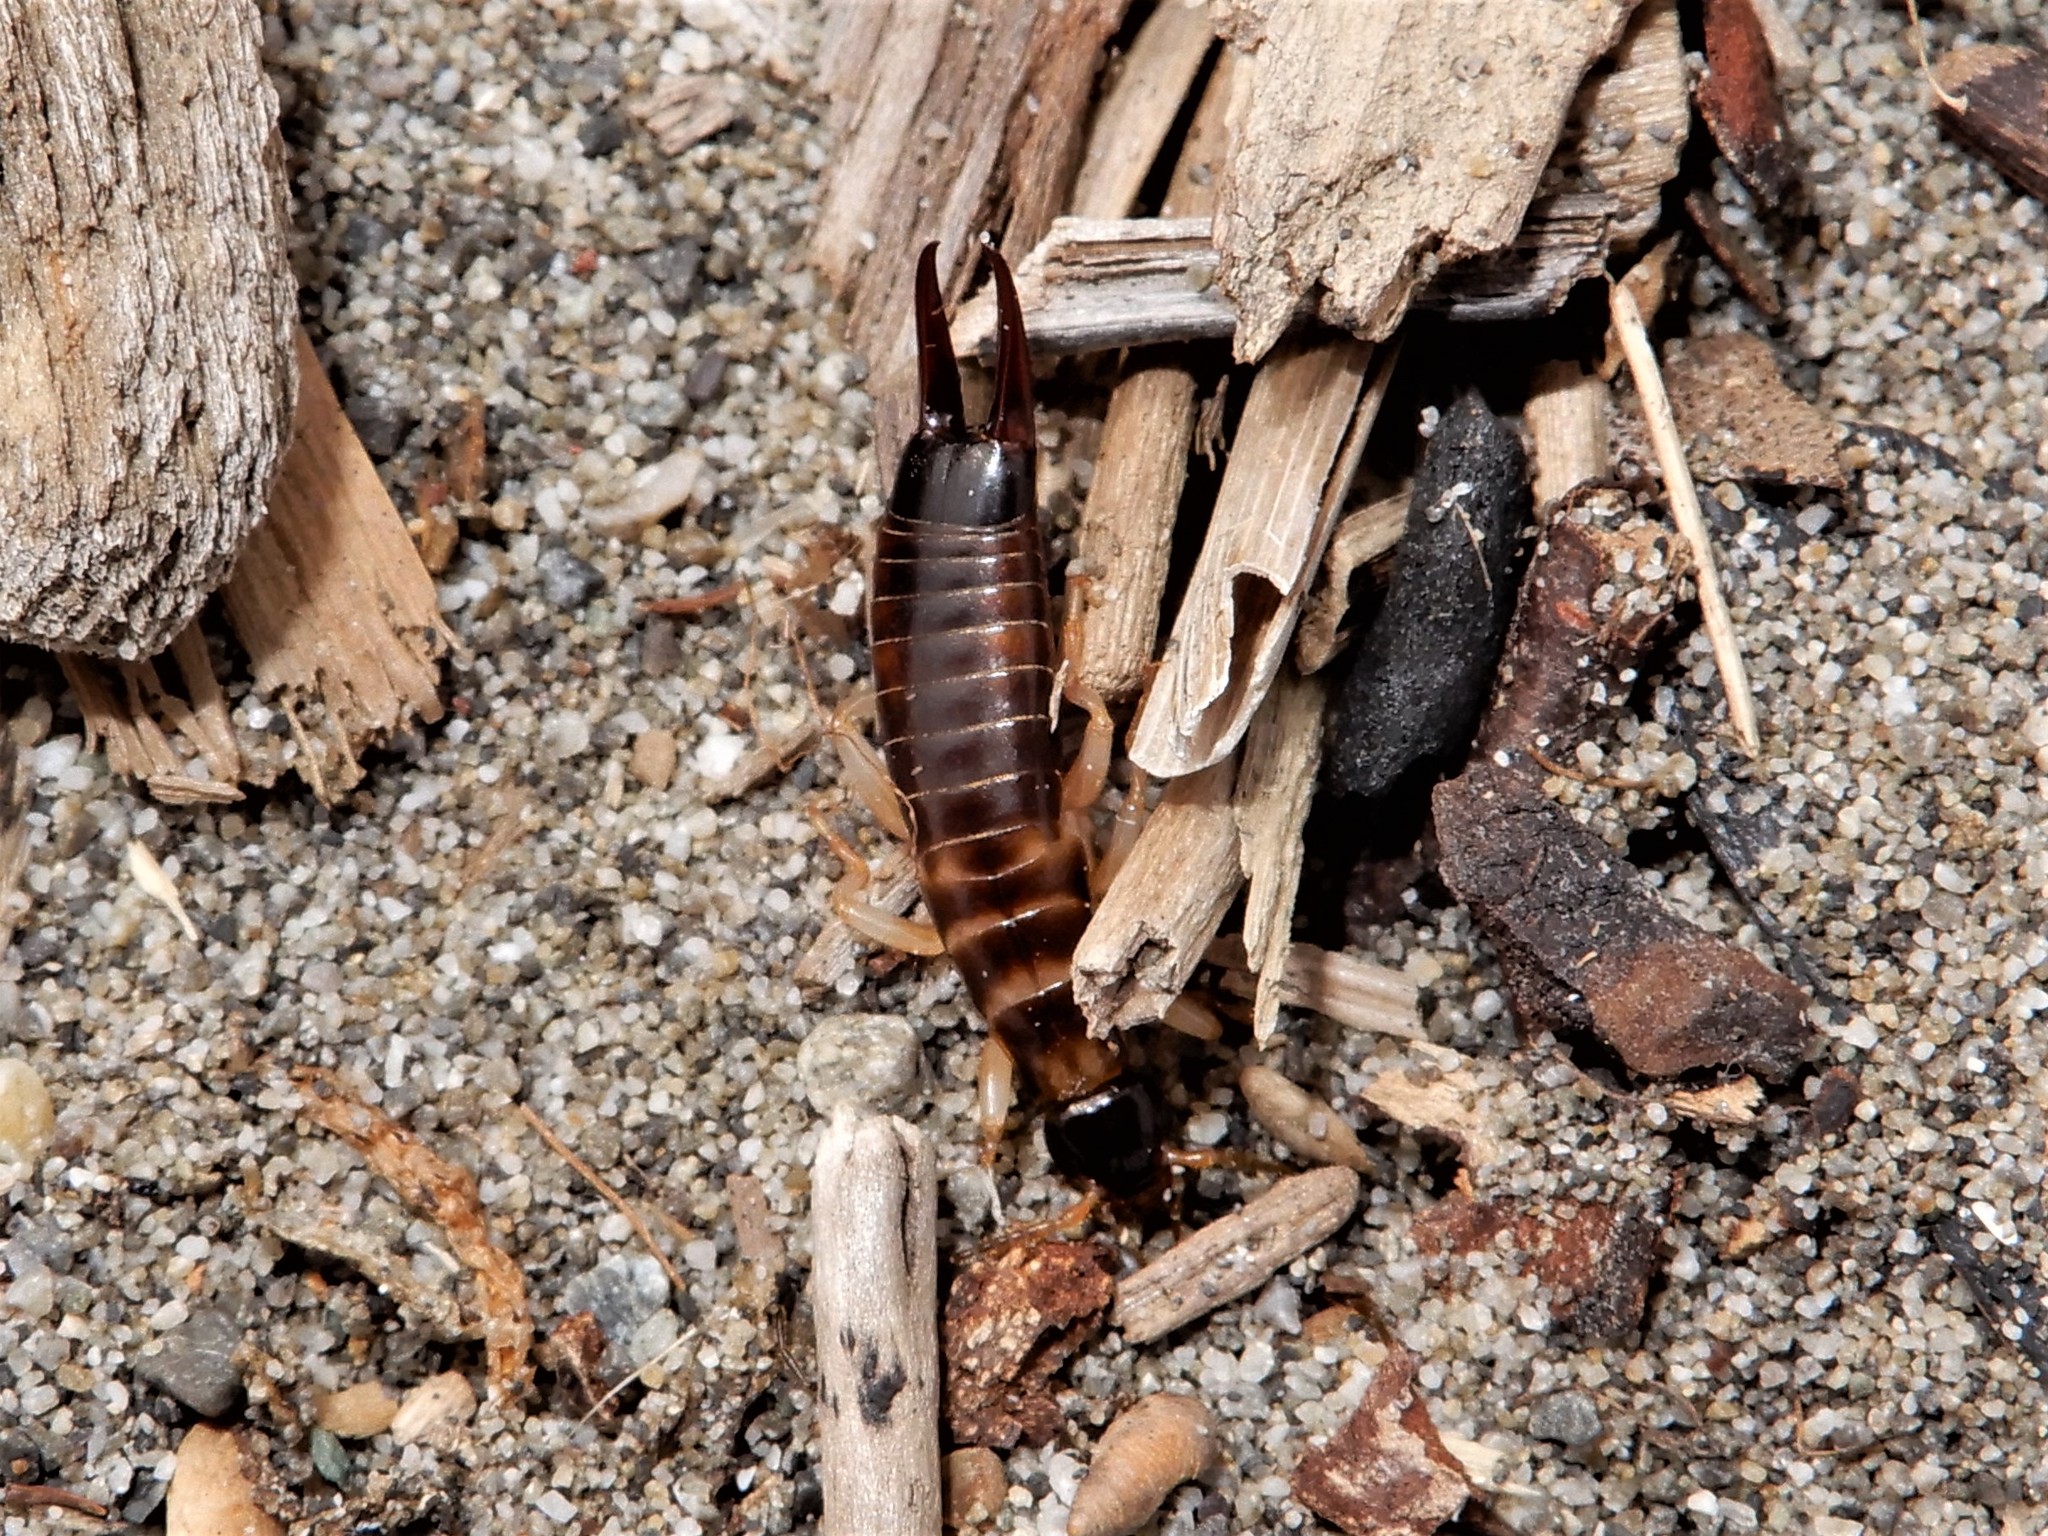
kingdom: Animalia
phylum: Arthropoda
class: Insecta
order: Dermaptera
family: Anisolabididae
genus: Anisolabis
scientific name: Anisolabis littorea
